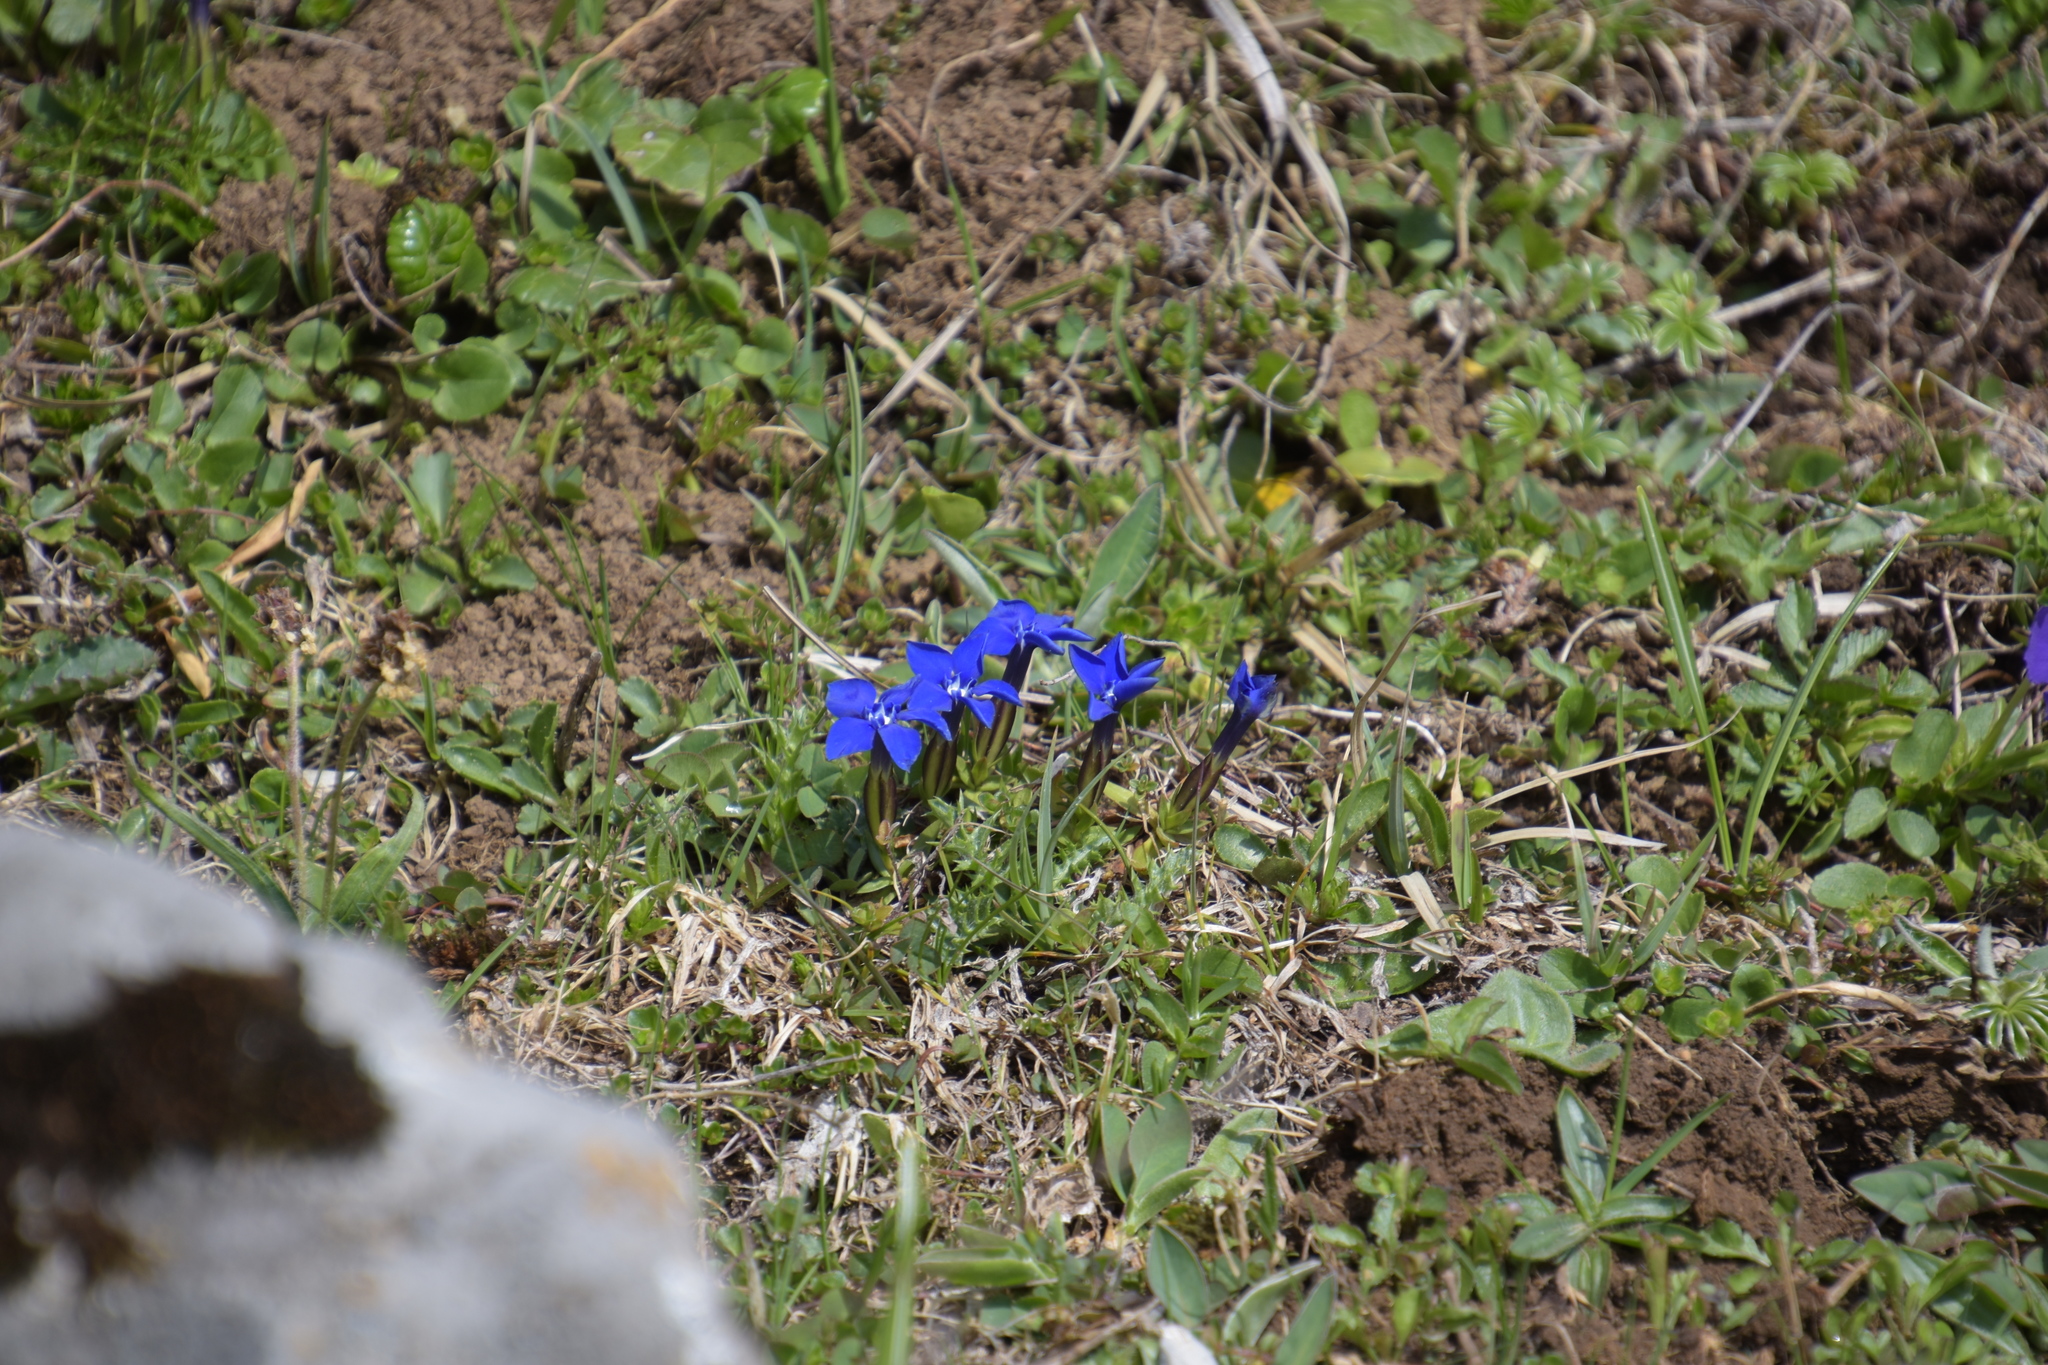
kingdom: Plantae
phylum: Tracheophyta
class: Magnoliopsida
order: Gentianales
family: Gentianaceae
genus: Gentiana
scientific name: Gentiana verna
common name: Spring gentian
